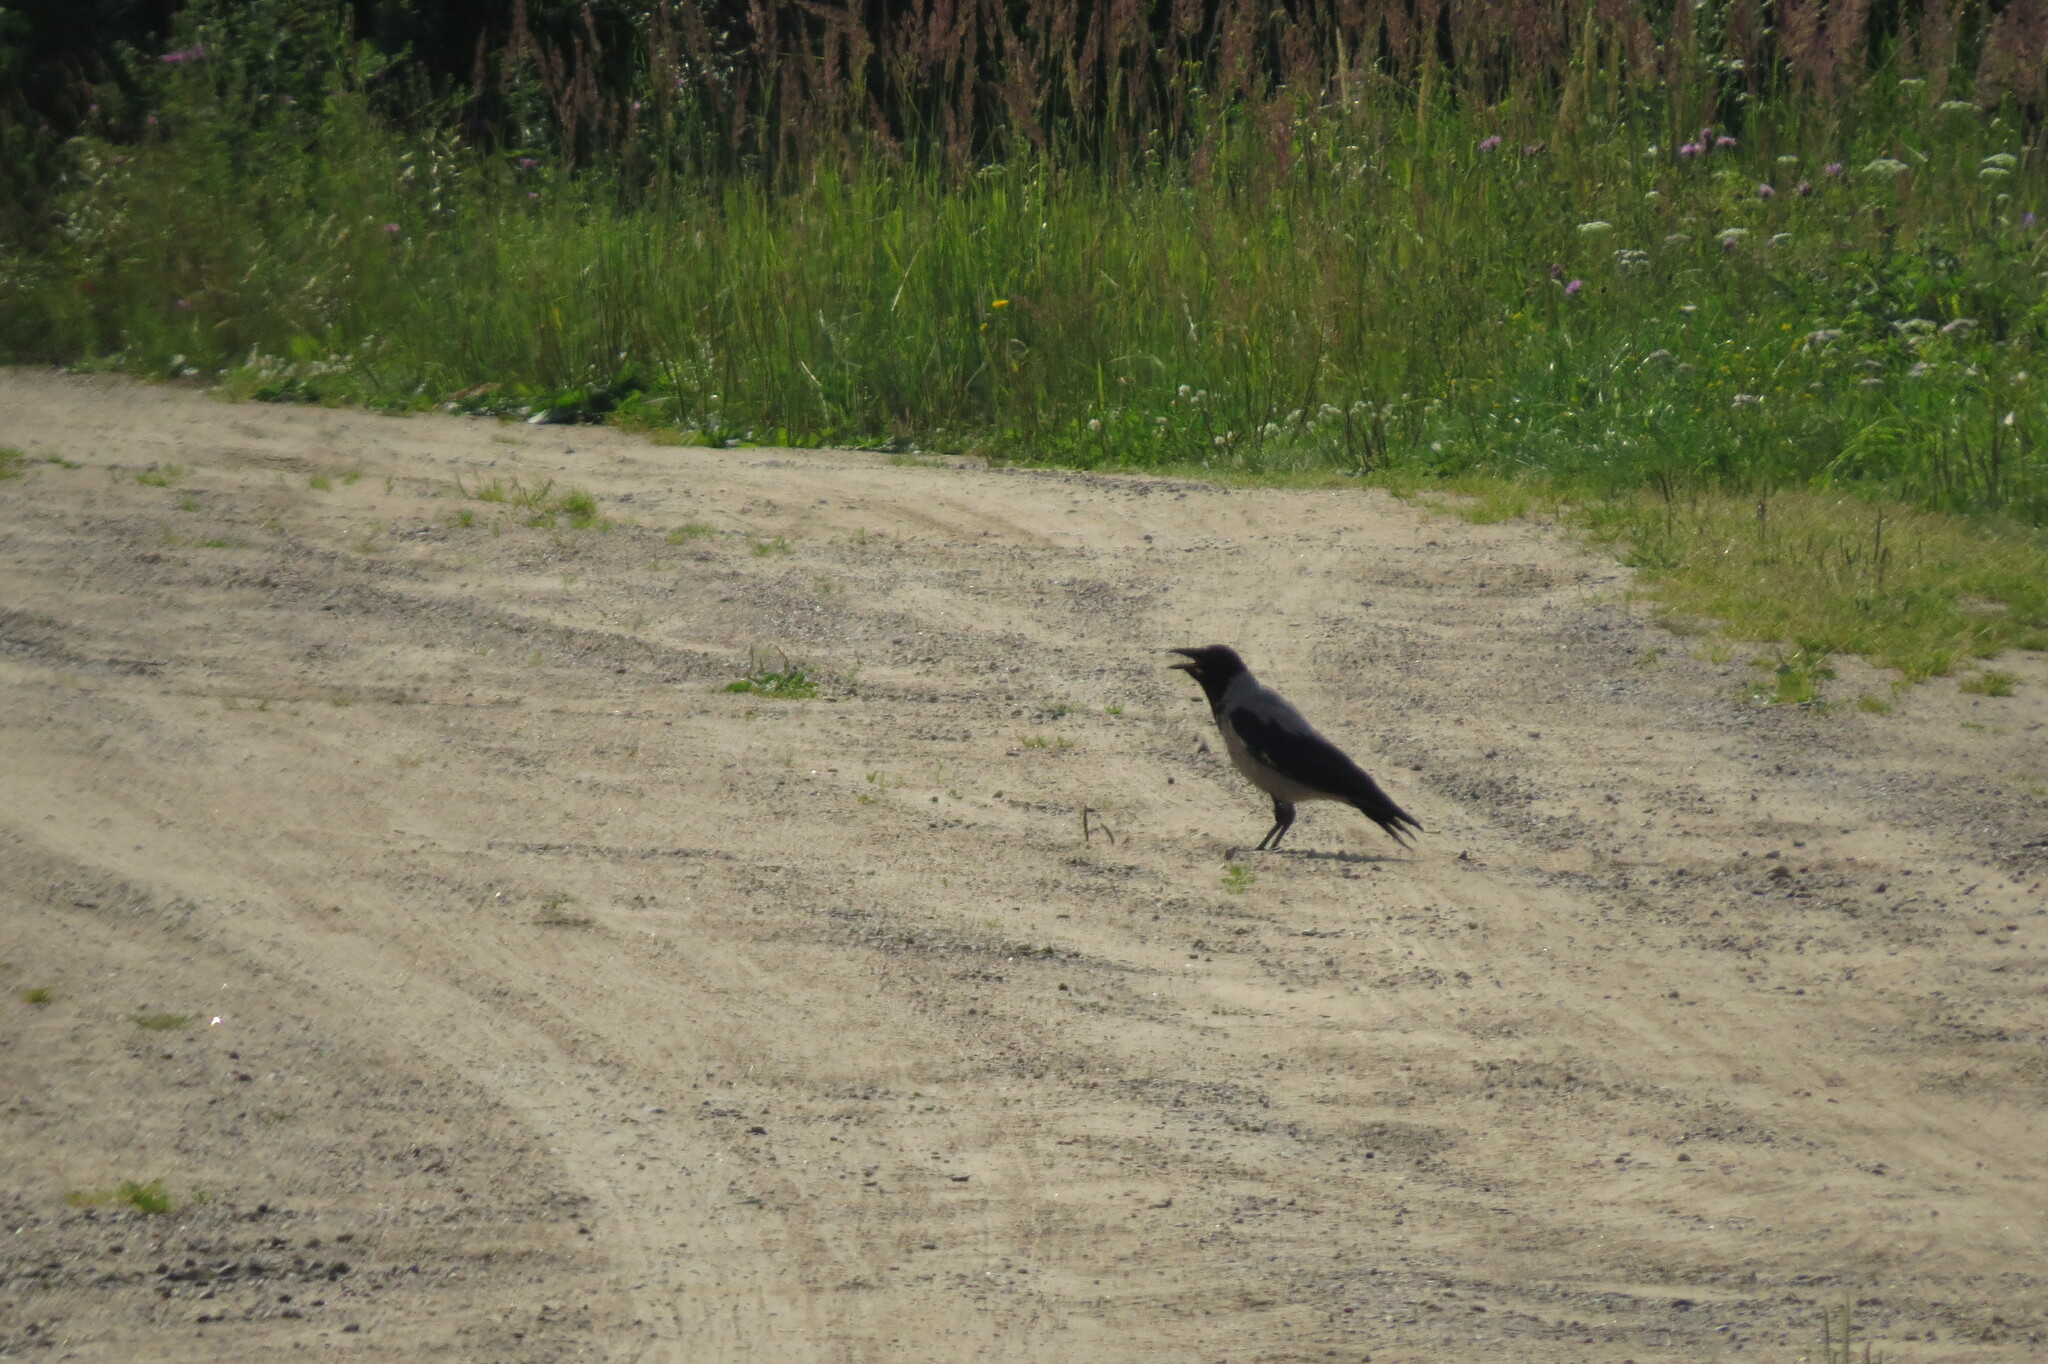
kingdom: Animalia
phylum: Chordata
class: Aves
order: Passeriformes
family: Corvidae
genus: Corvus
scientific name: Corvus cornix
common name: Hooded crow
